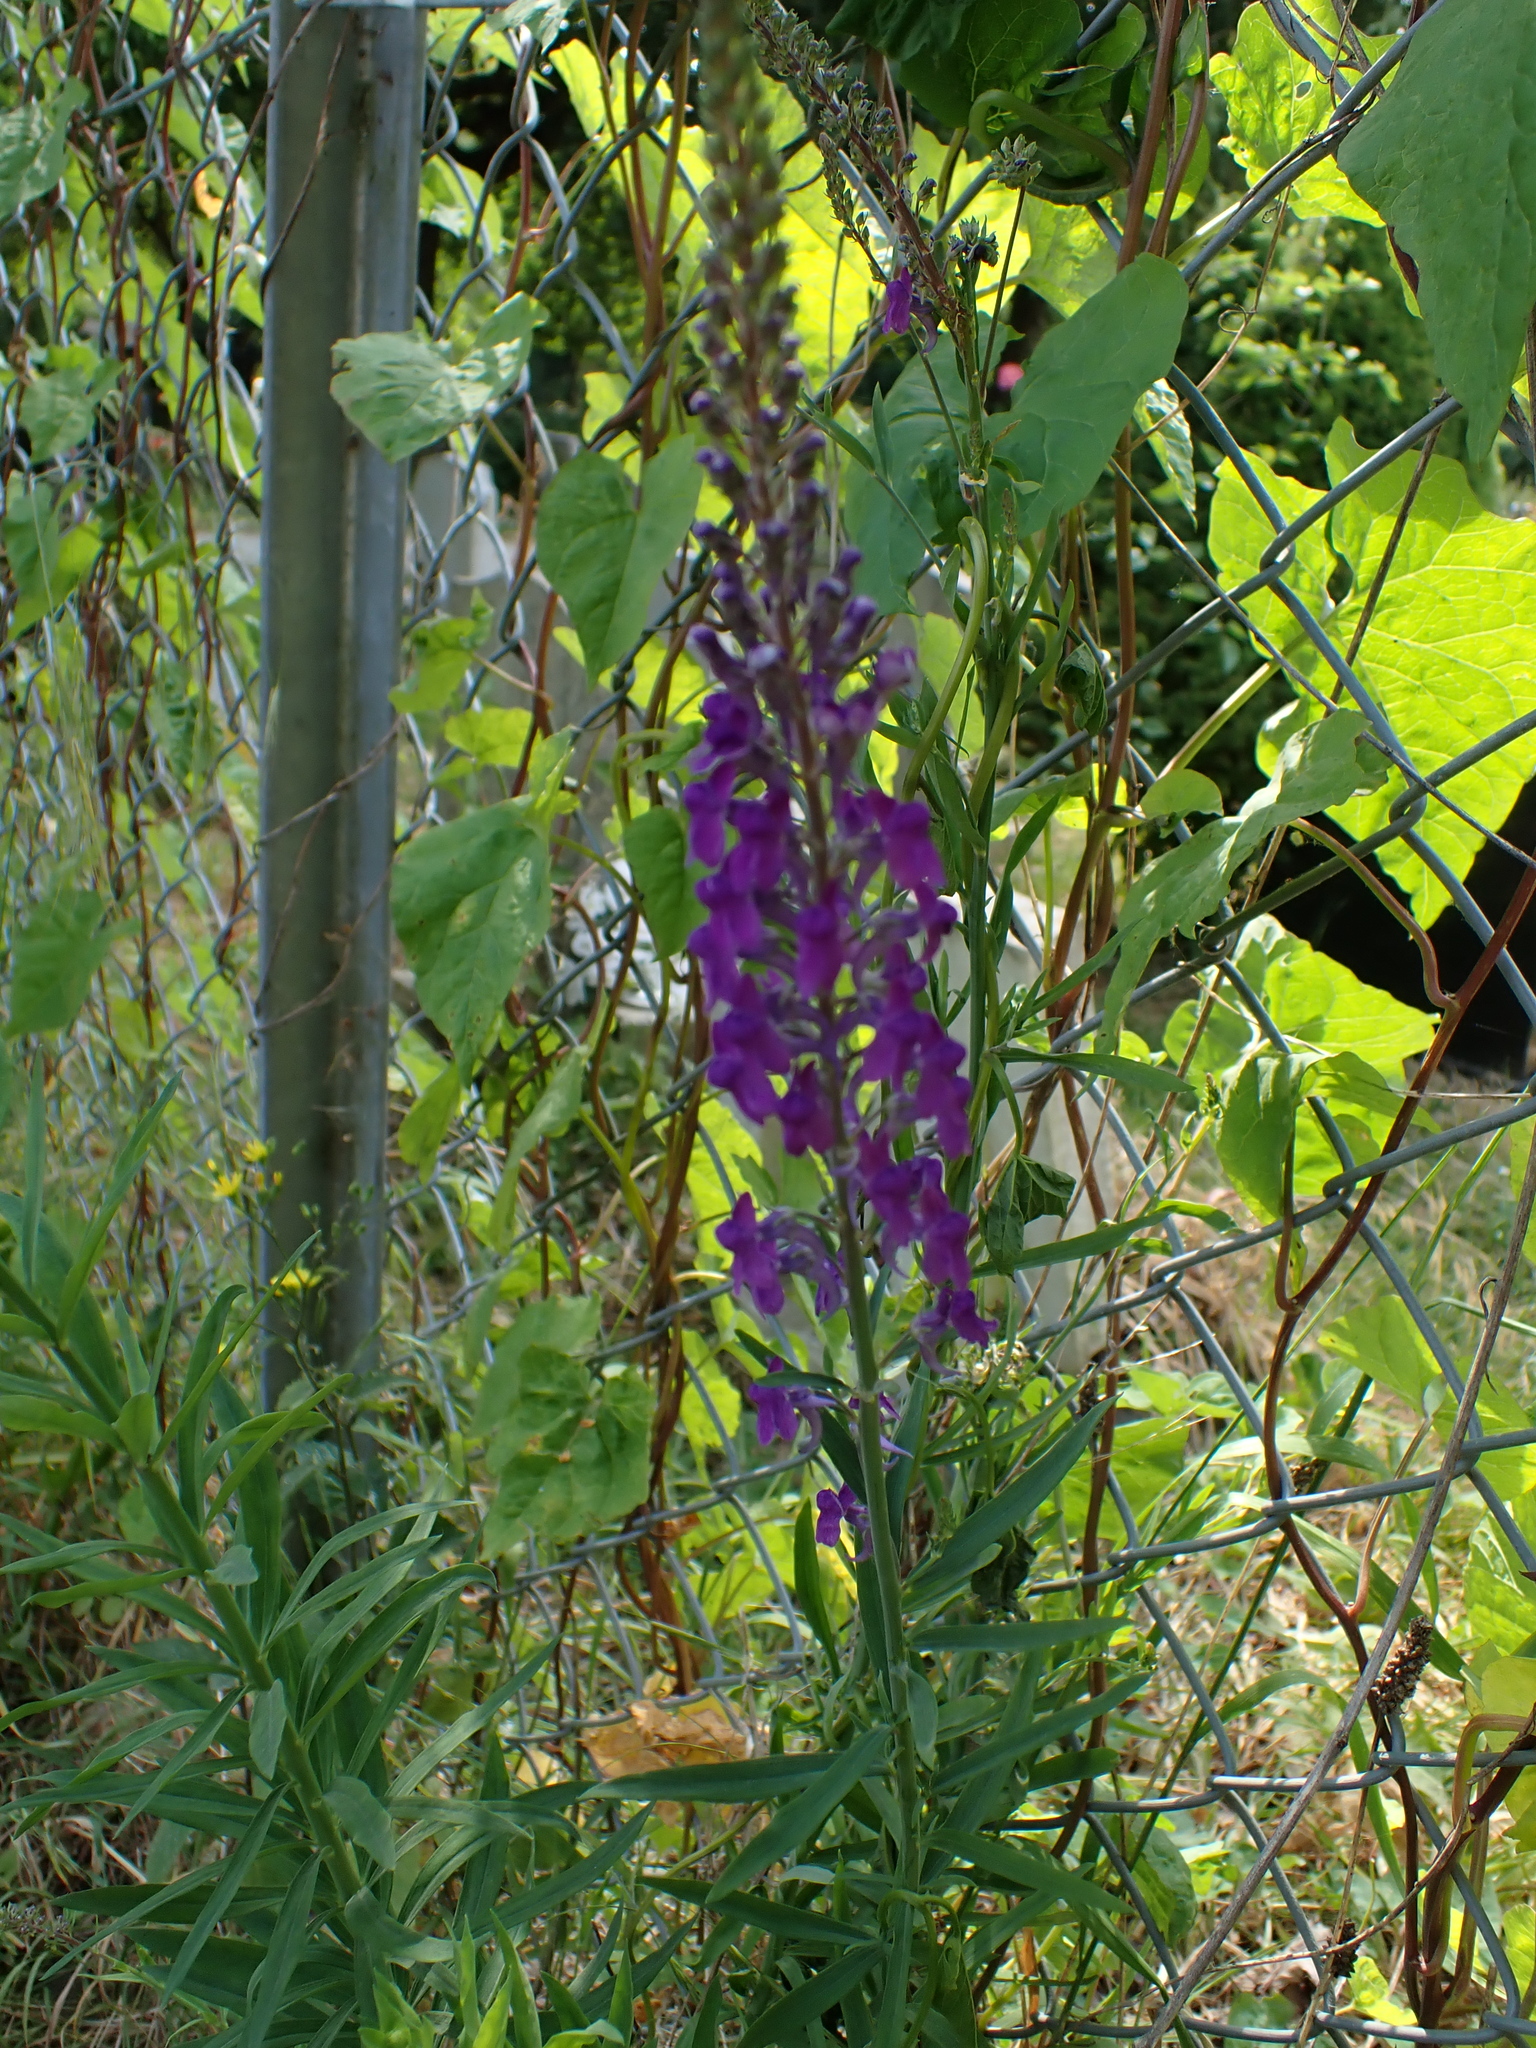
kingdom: Plantae
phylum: Tracheophyta
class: Magnoliopsida
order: Lamiales
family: Plantaginaceae
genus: Linaria
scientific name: Linaria purpurea
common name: Purple toadflax
